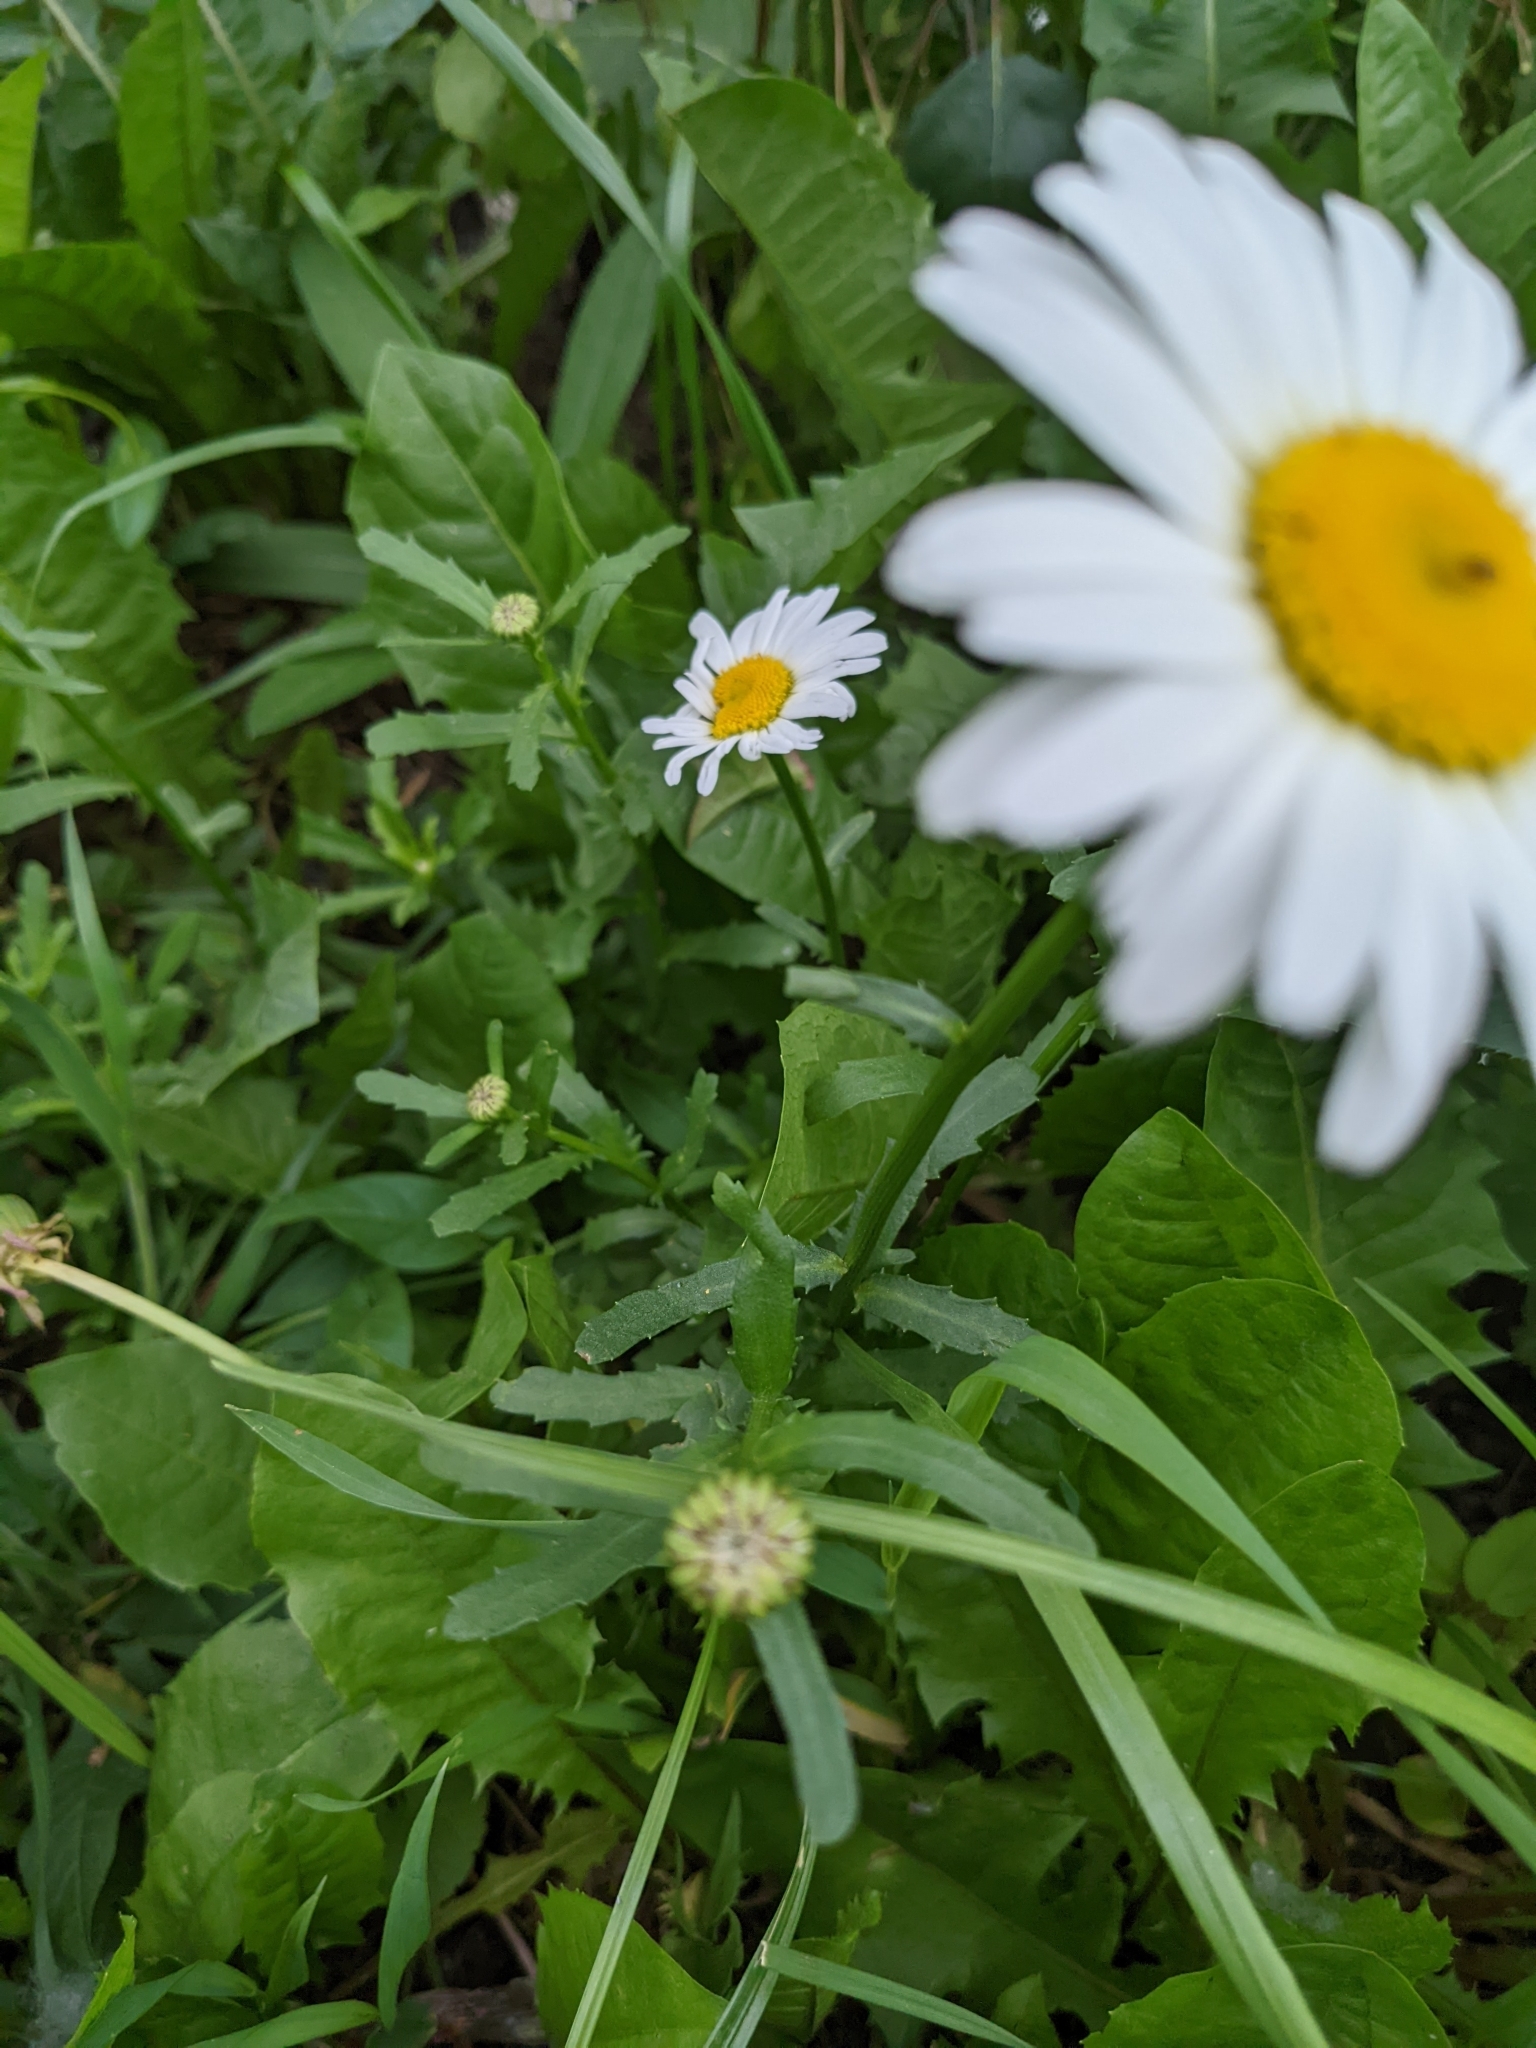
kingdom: Plantae
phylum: Tracheophyta
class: Magnoliopsida
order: Asterales
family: Asteraceae
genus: Leucanthemum
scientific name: Leucanthemum vulgare
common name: Oxeye daisy
